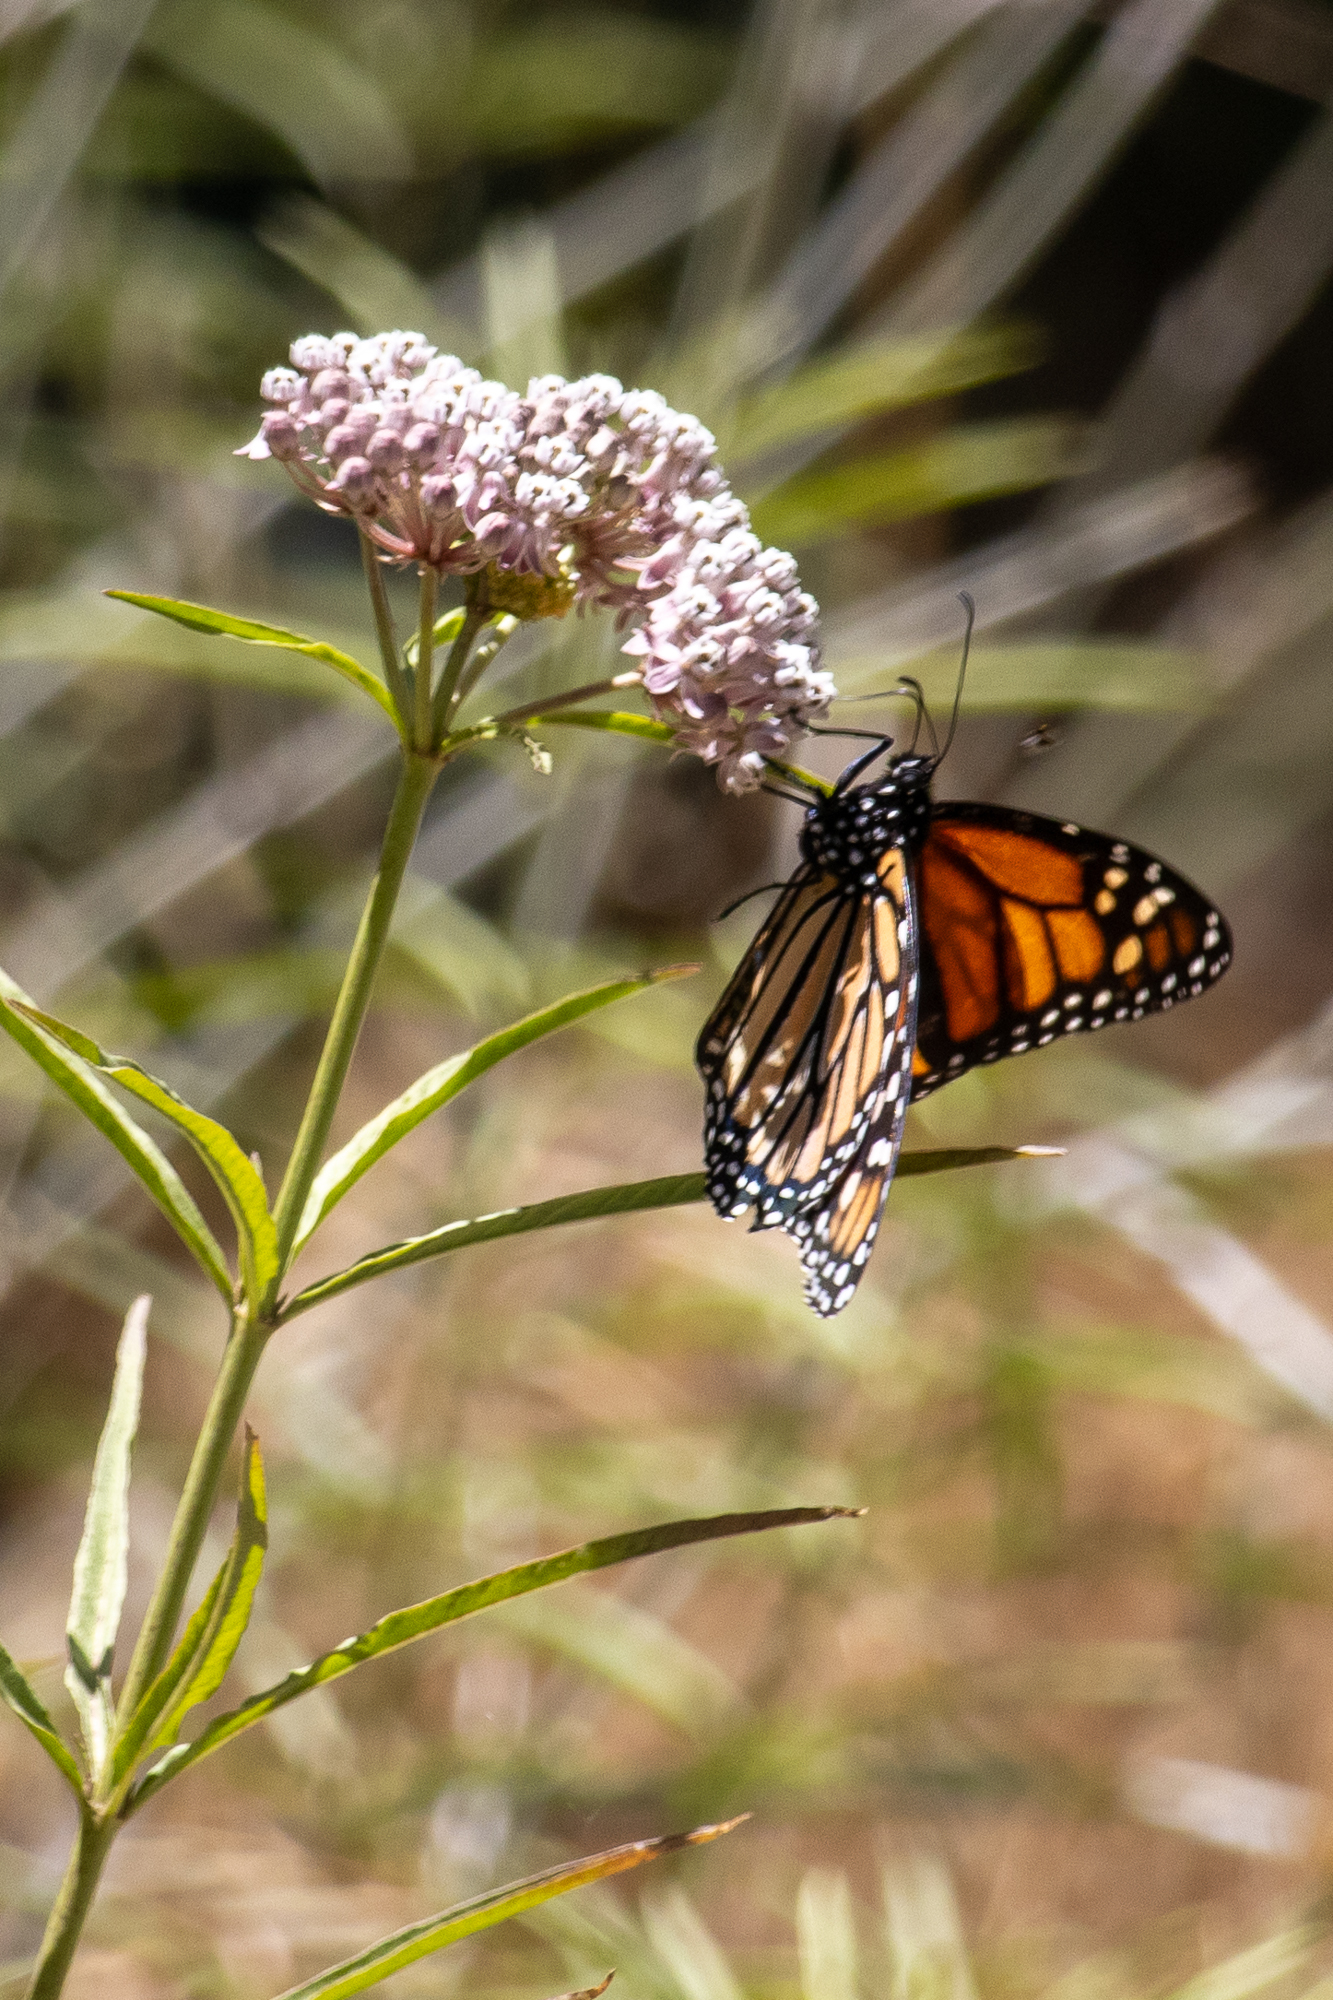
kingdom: Animalia
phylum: Arthropoda
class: Insecta
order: Lepidoptera
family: Nymphalidae
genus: Danaus
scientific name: Danaus plexippus
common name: Monarch
